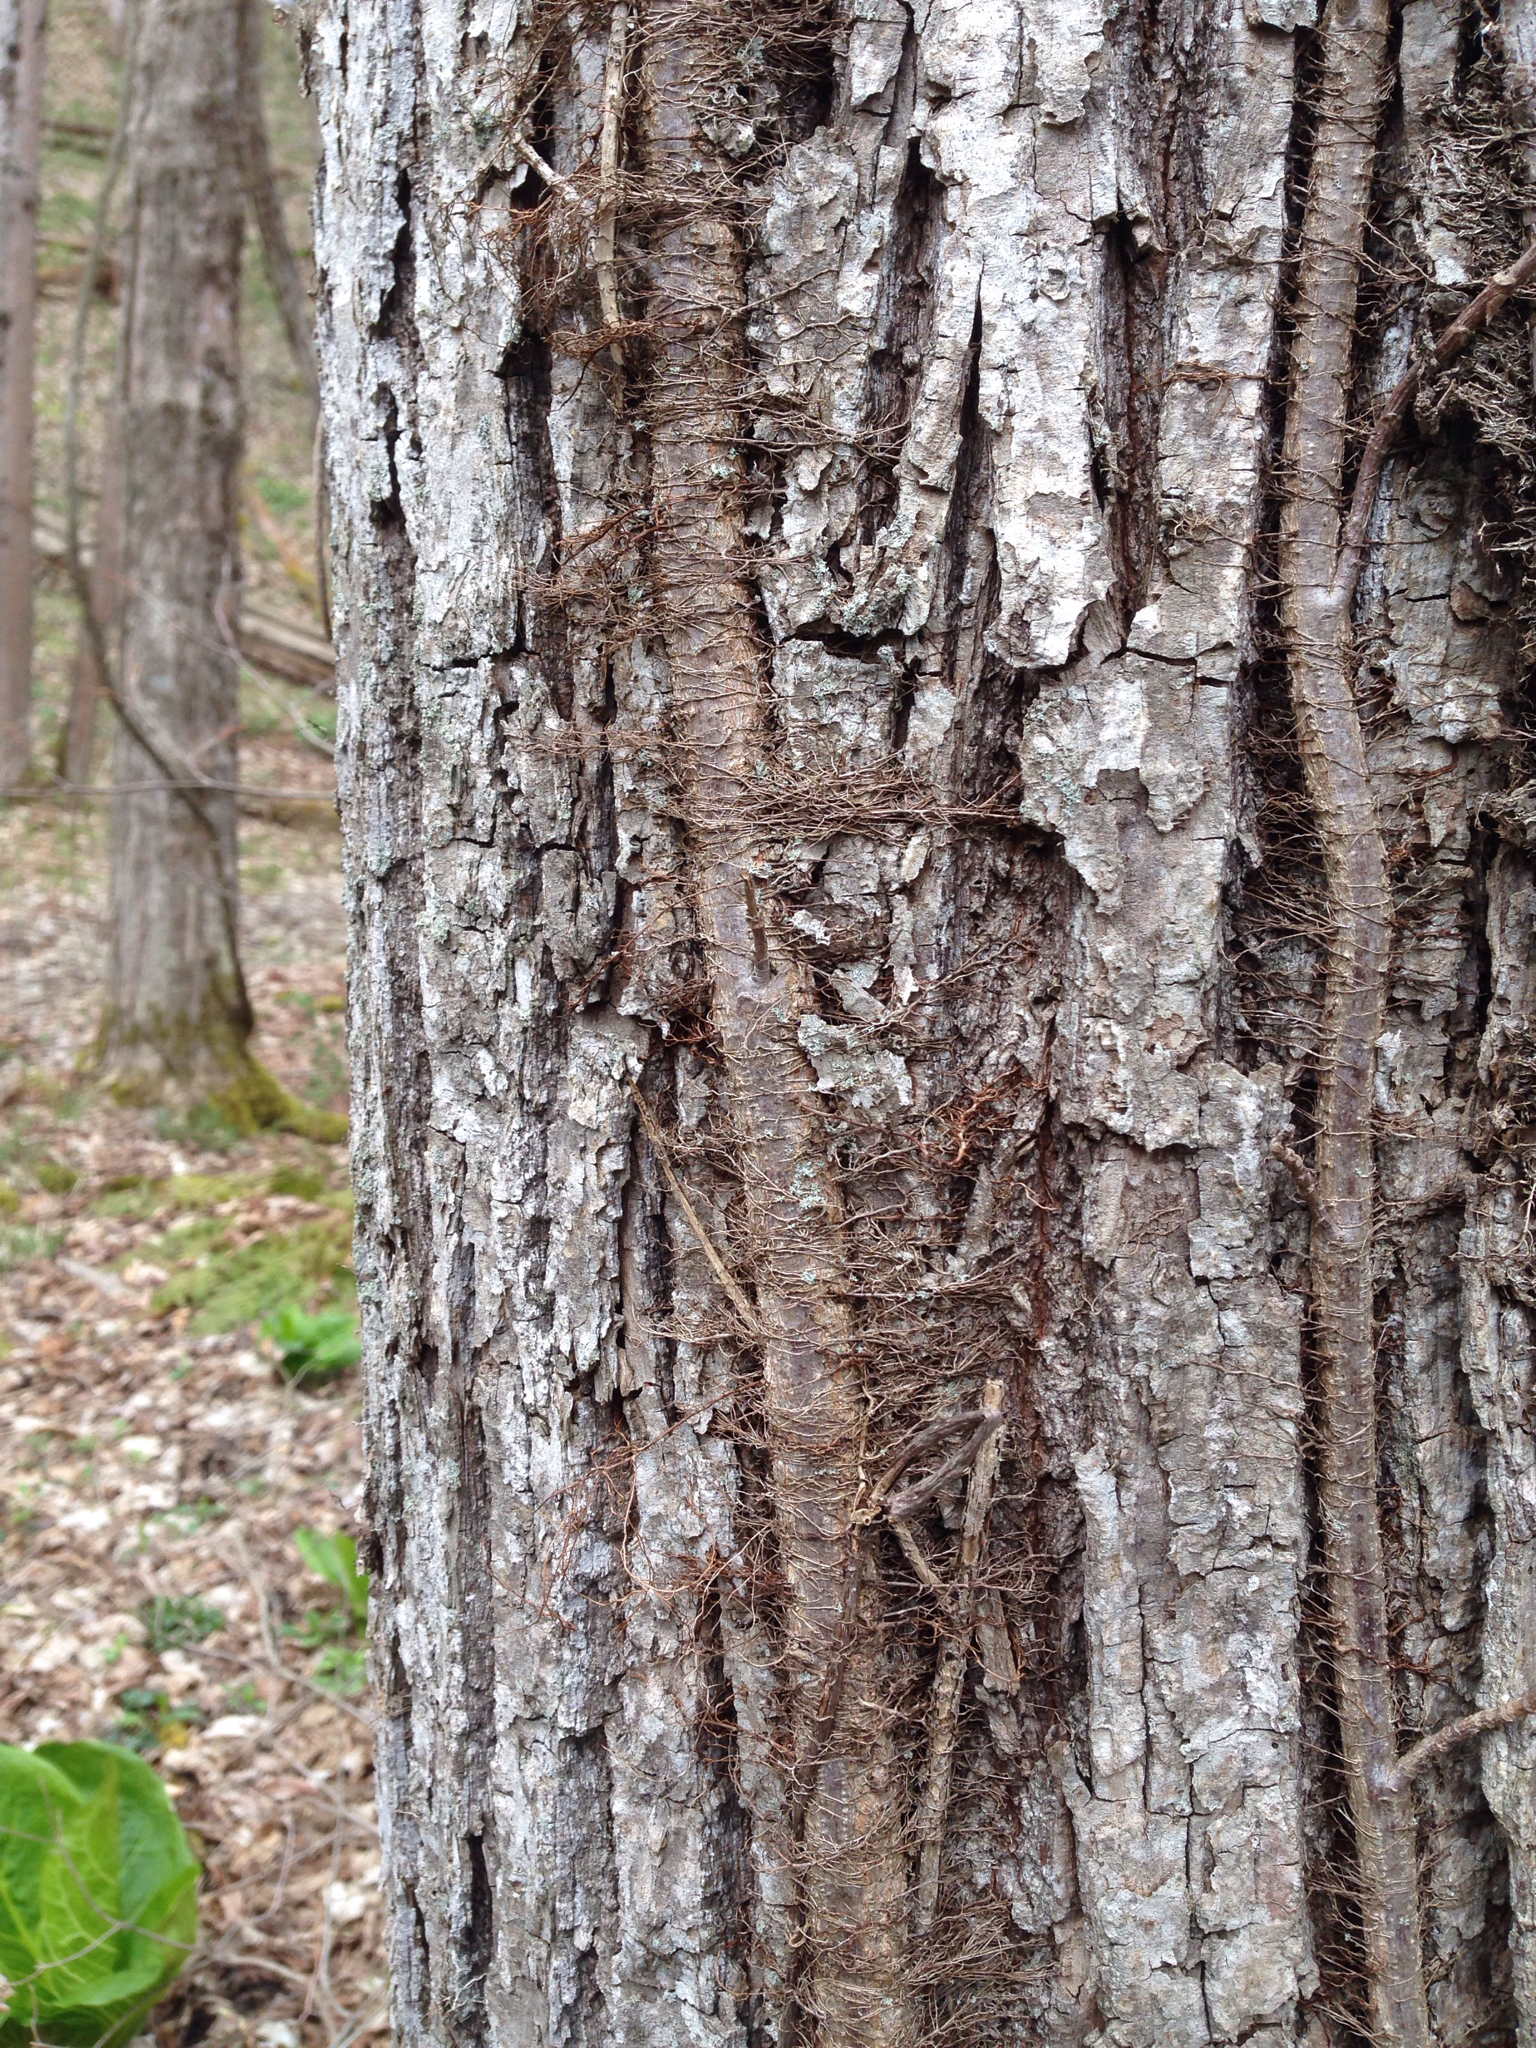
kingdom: Plantae
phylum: Tracheophyta
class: Magnoliopsida
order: Sapindales
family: Anacardiaceae
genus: Toxicodendron
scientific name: Toxicodendron radicans
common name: Poison ivy
